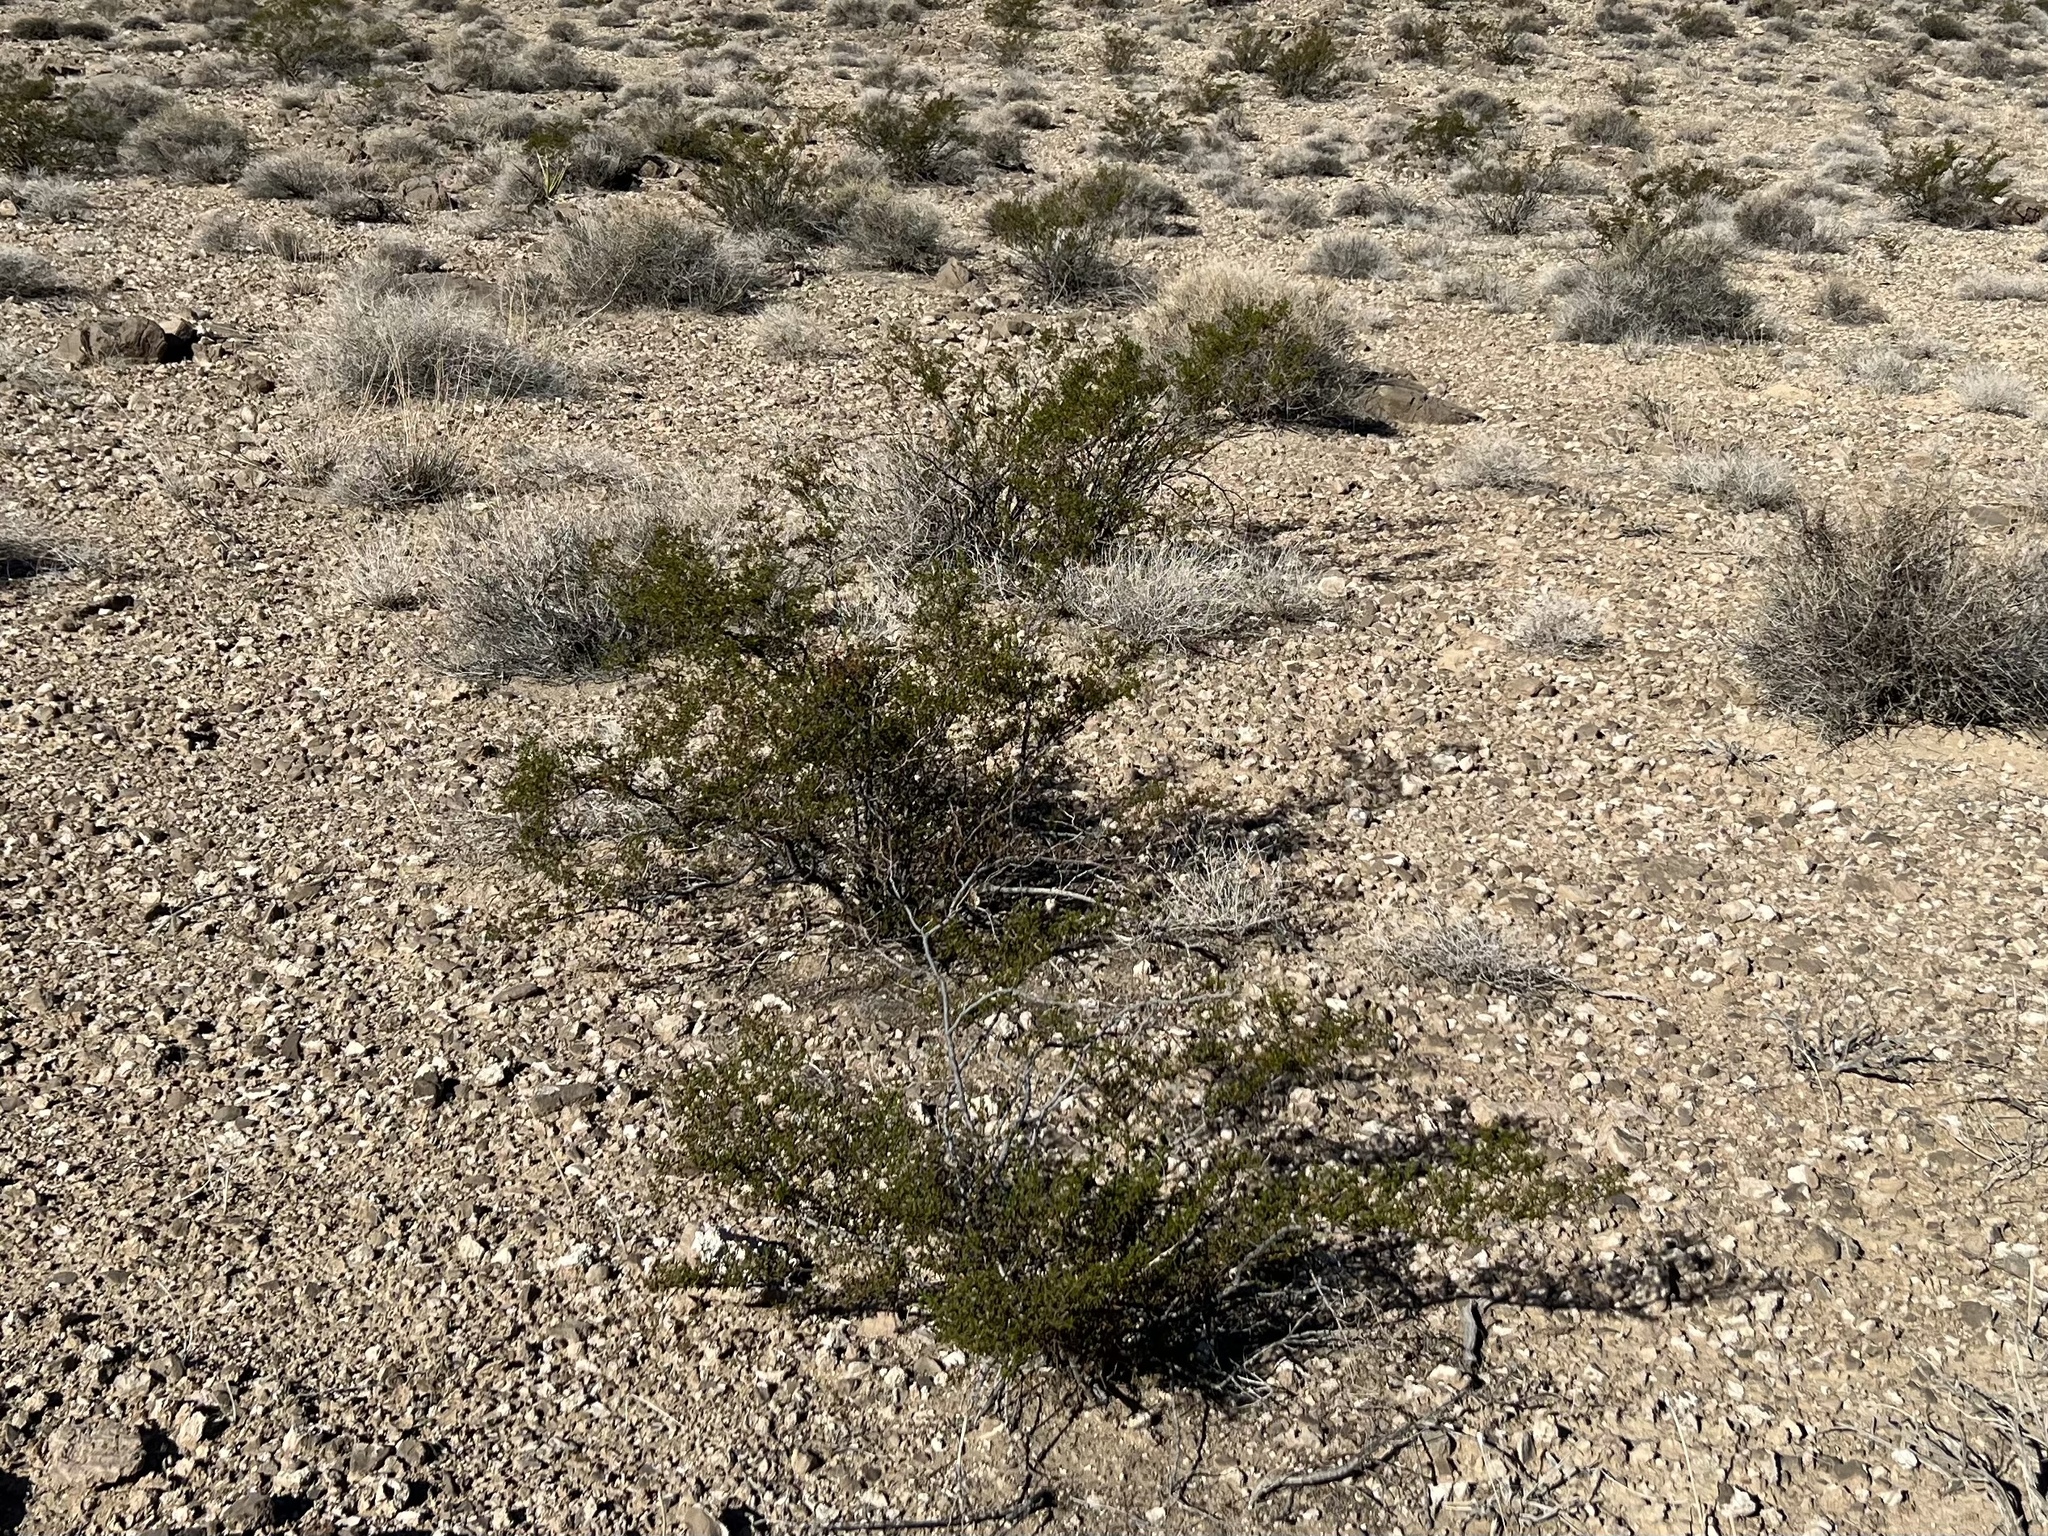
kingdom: Plantae
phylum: Tracheophyta
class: Magnoliopsida
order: Zygophyllales
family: Zygophyllaceae
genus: Larrea
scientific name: Larrea tridentata
